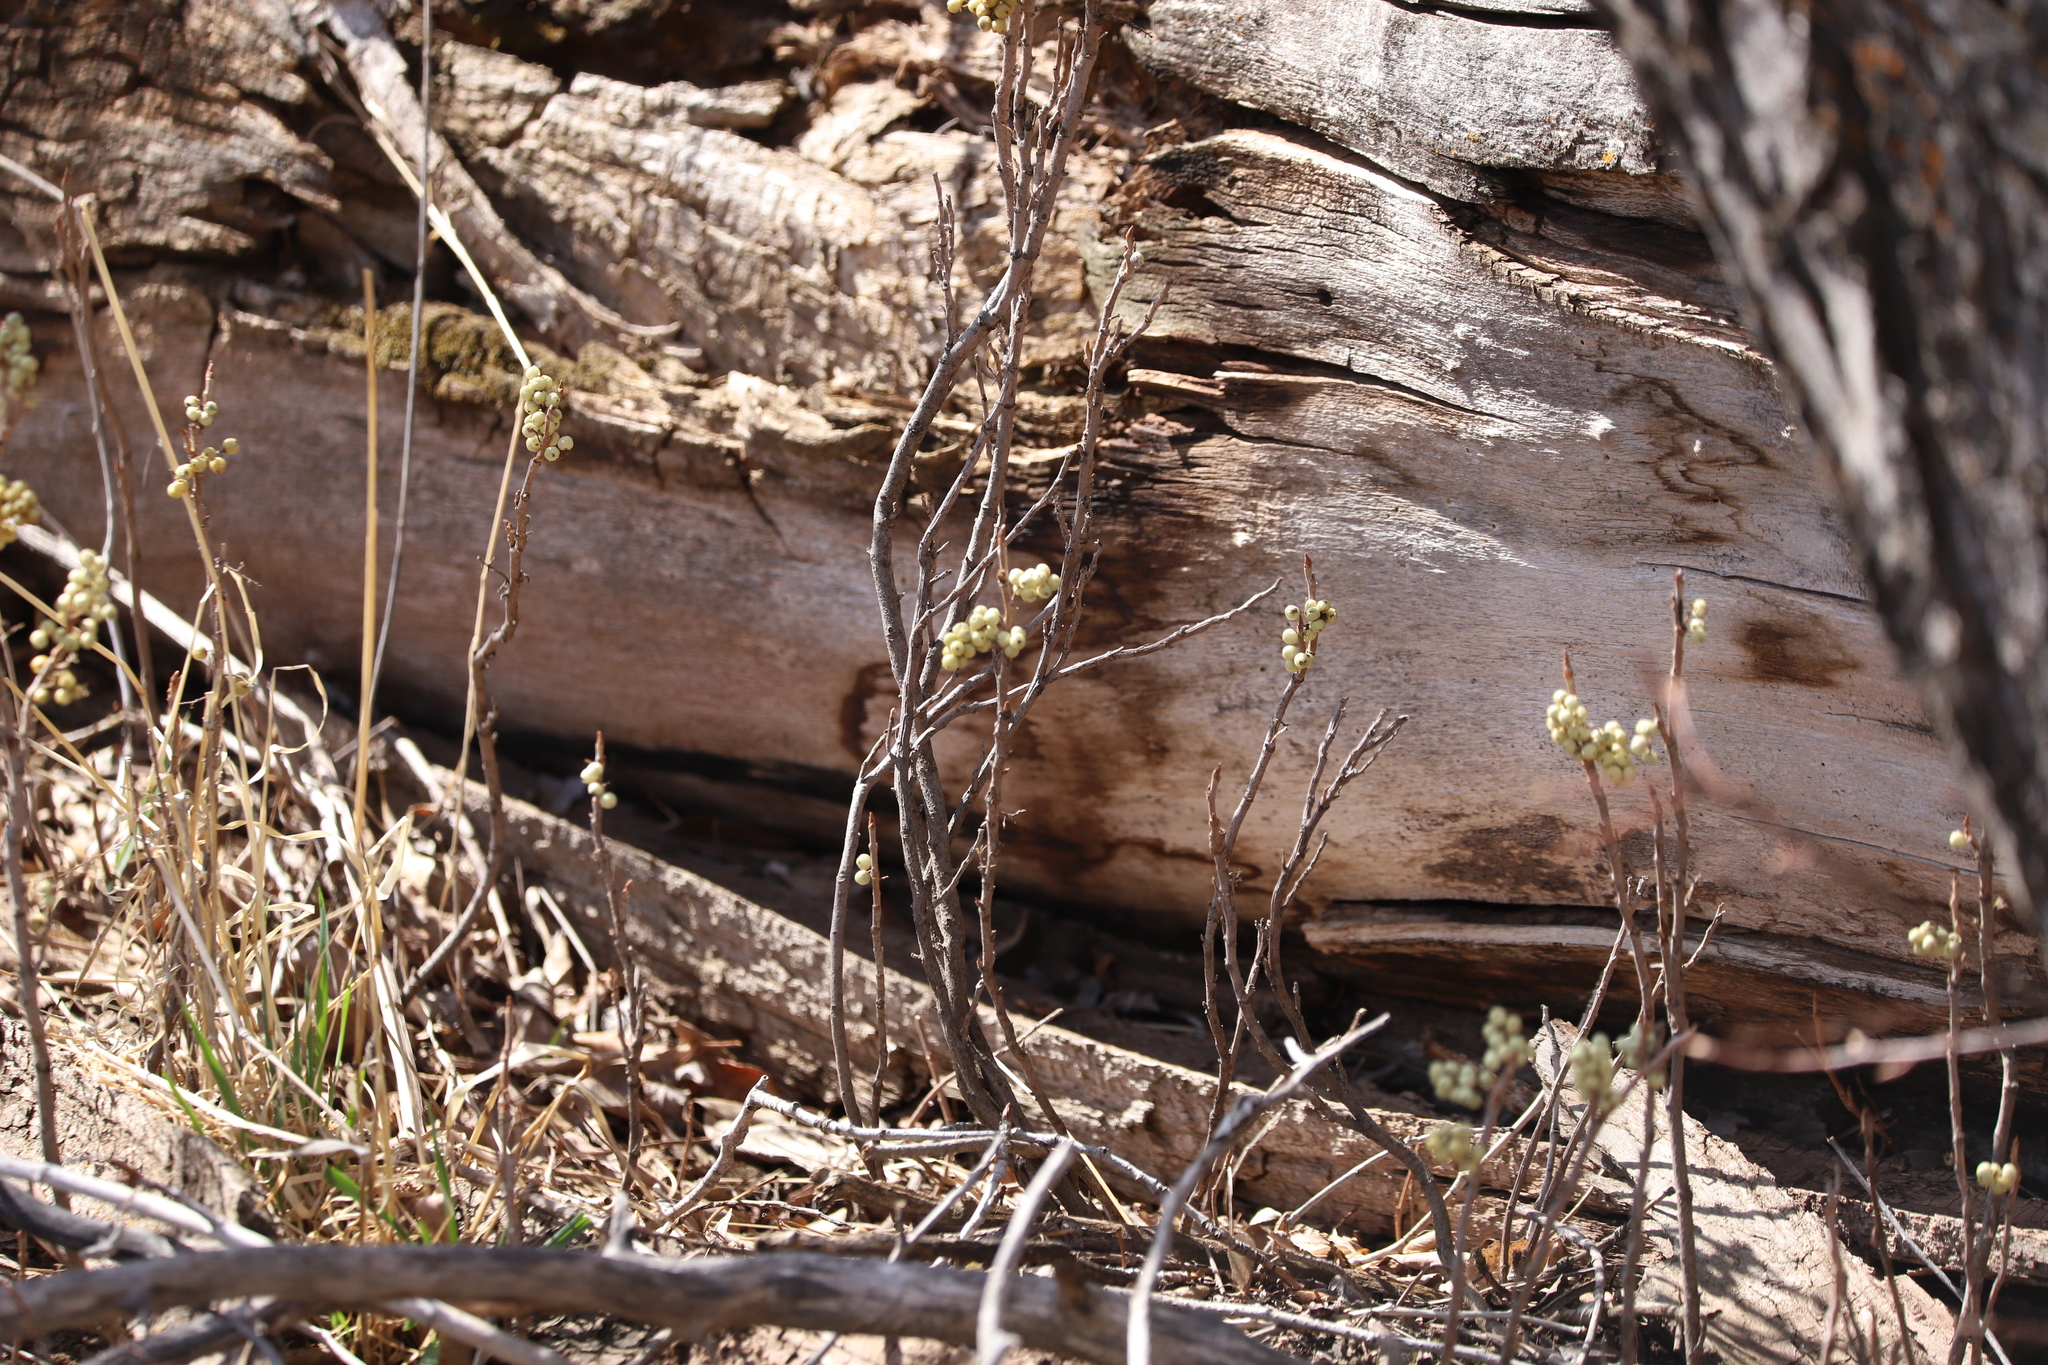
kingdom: Plantae
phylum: Tracheophyta
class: Magnoliopsida
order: Sapindales
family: Anacardiaceae
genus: Toxicodendron
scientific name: Toxicodendron rydbergii
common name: Rydberg's poison-ivy
